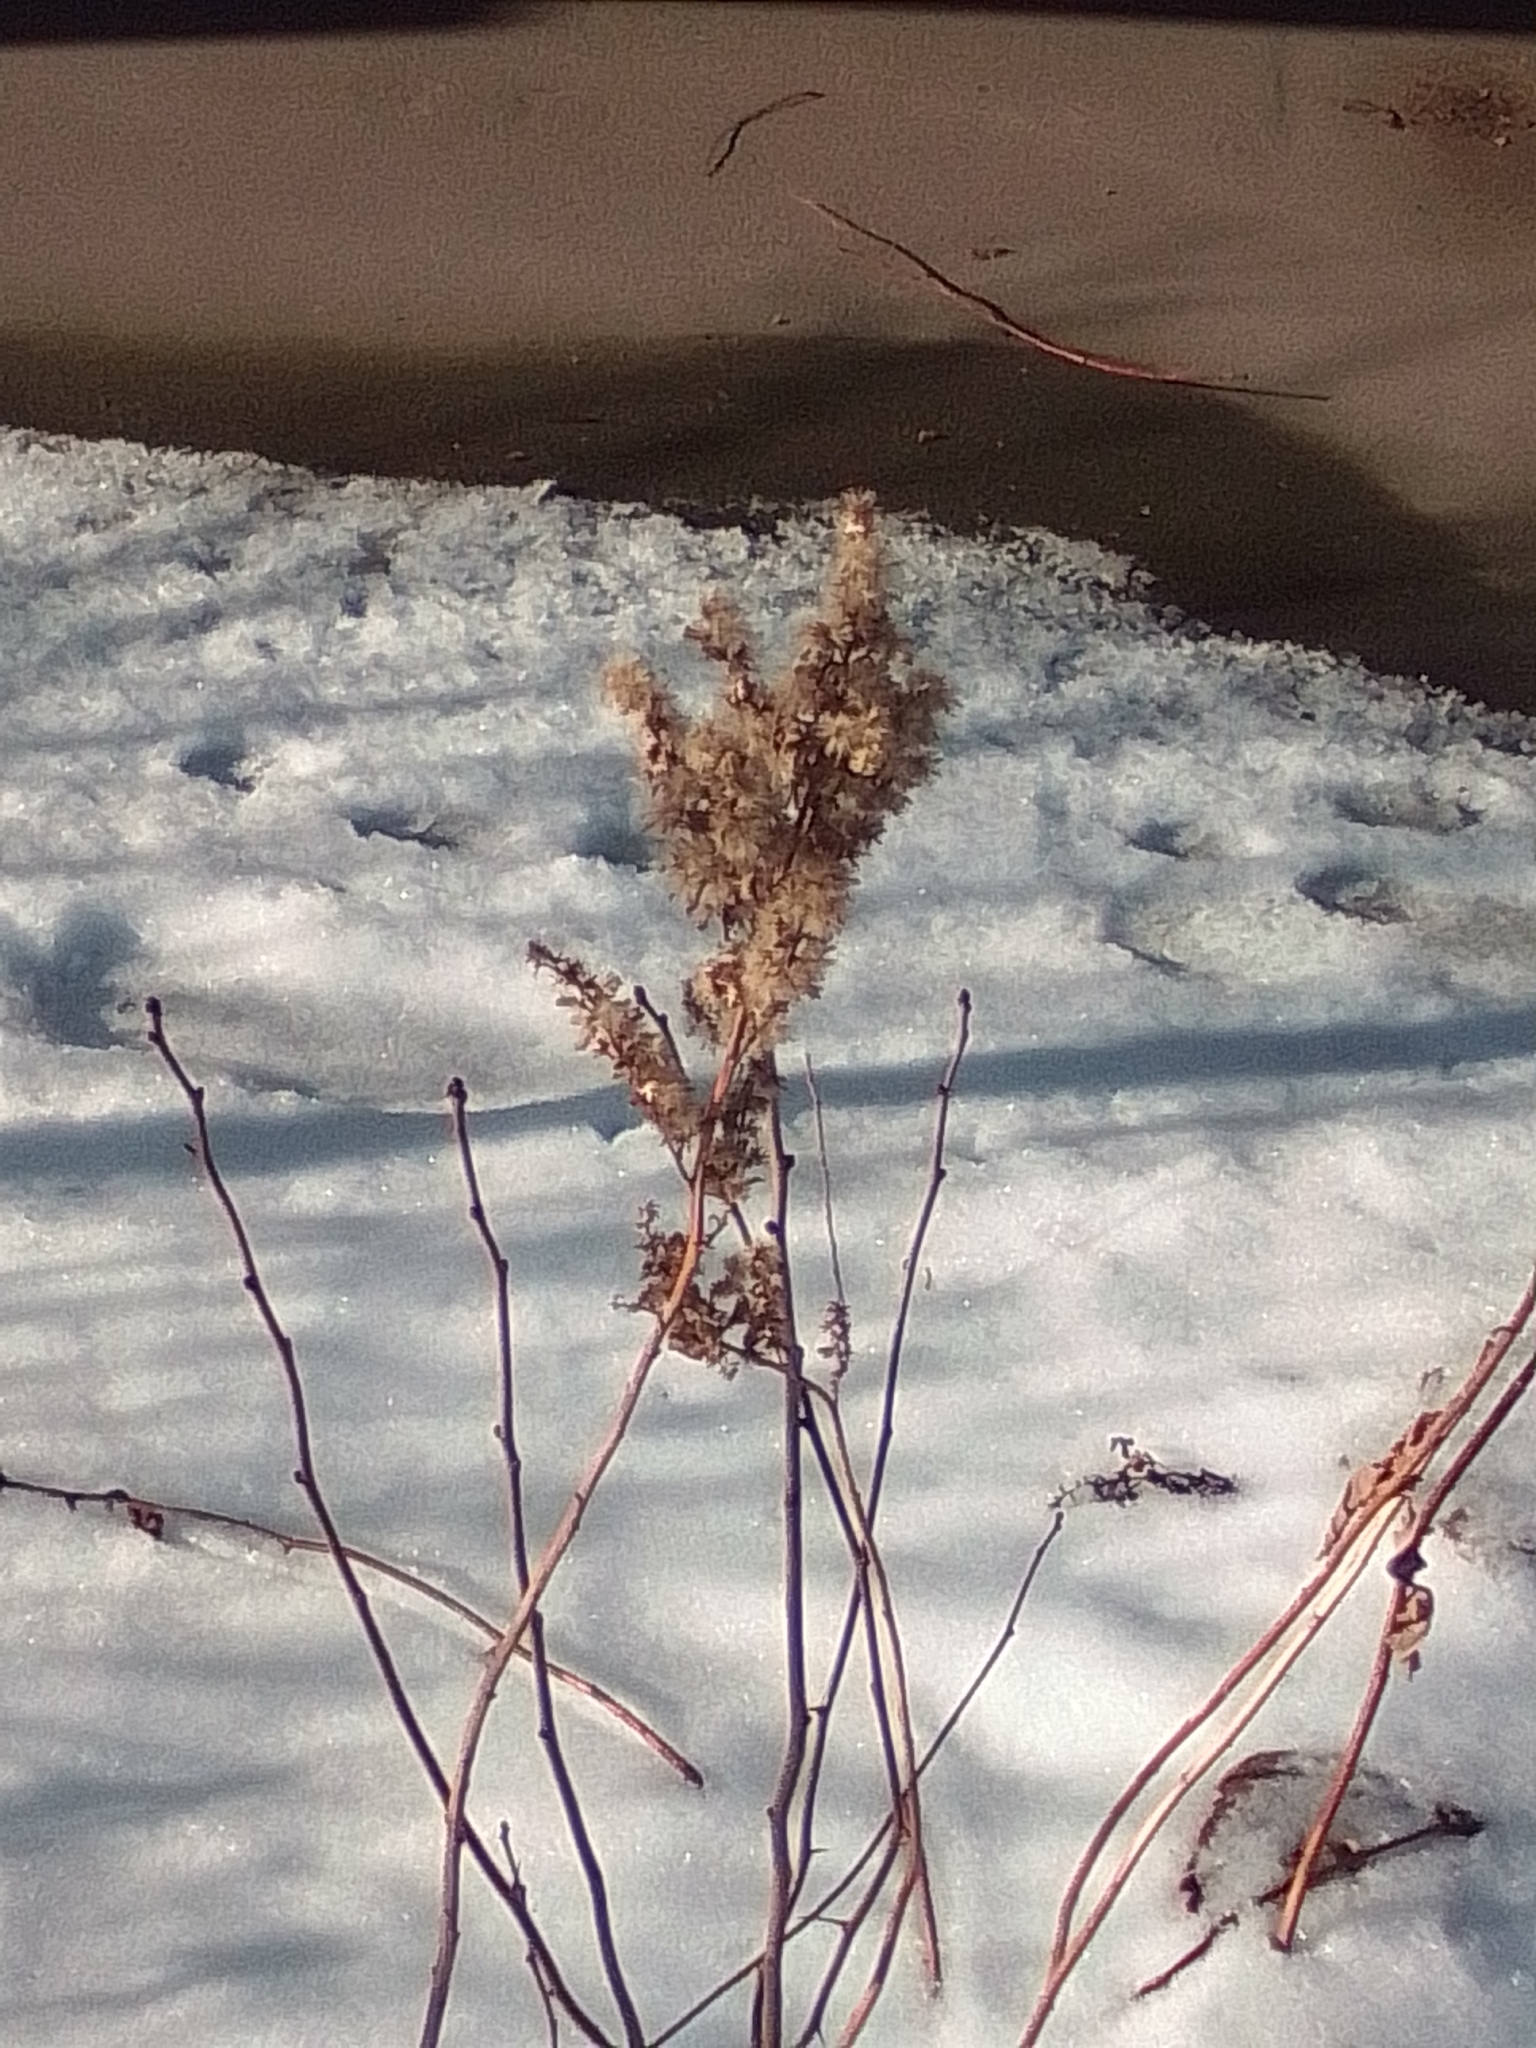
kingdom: Plantae
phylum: Tracheophyta
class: Magnoliopsida
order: Asterales
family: Asteraceae
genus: Solidago
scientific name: Solidago canadensis
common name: Canada goldenrod
